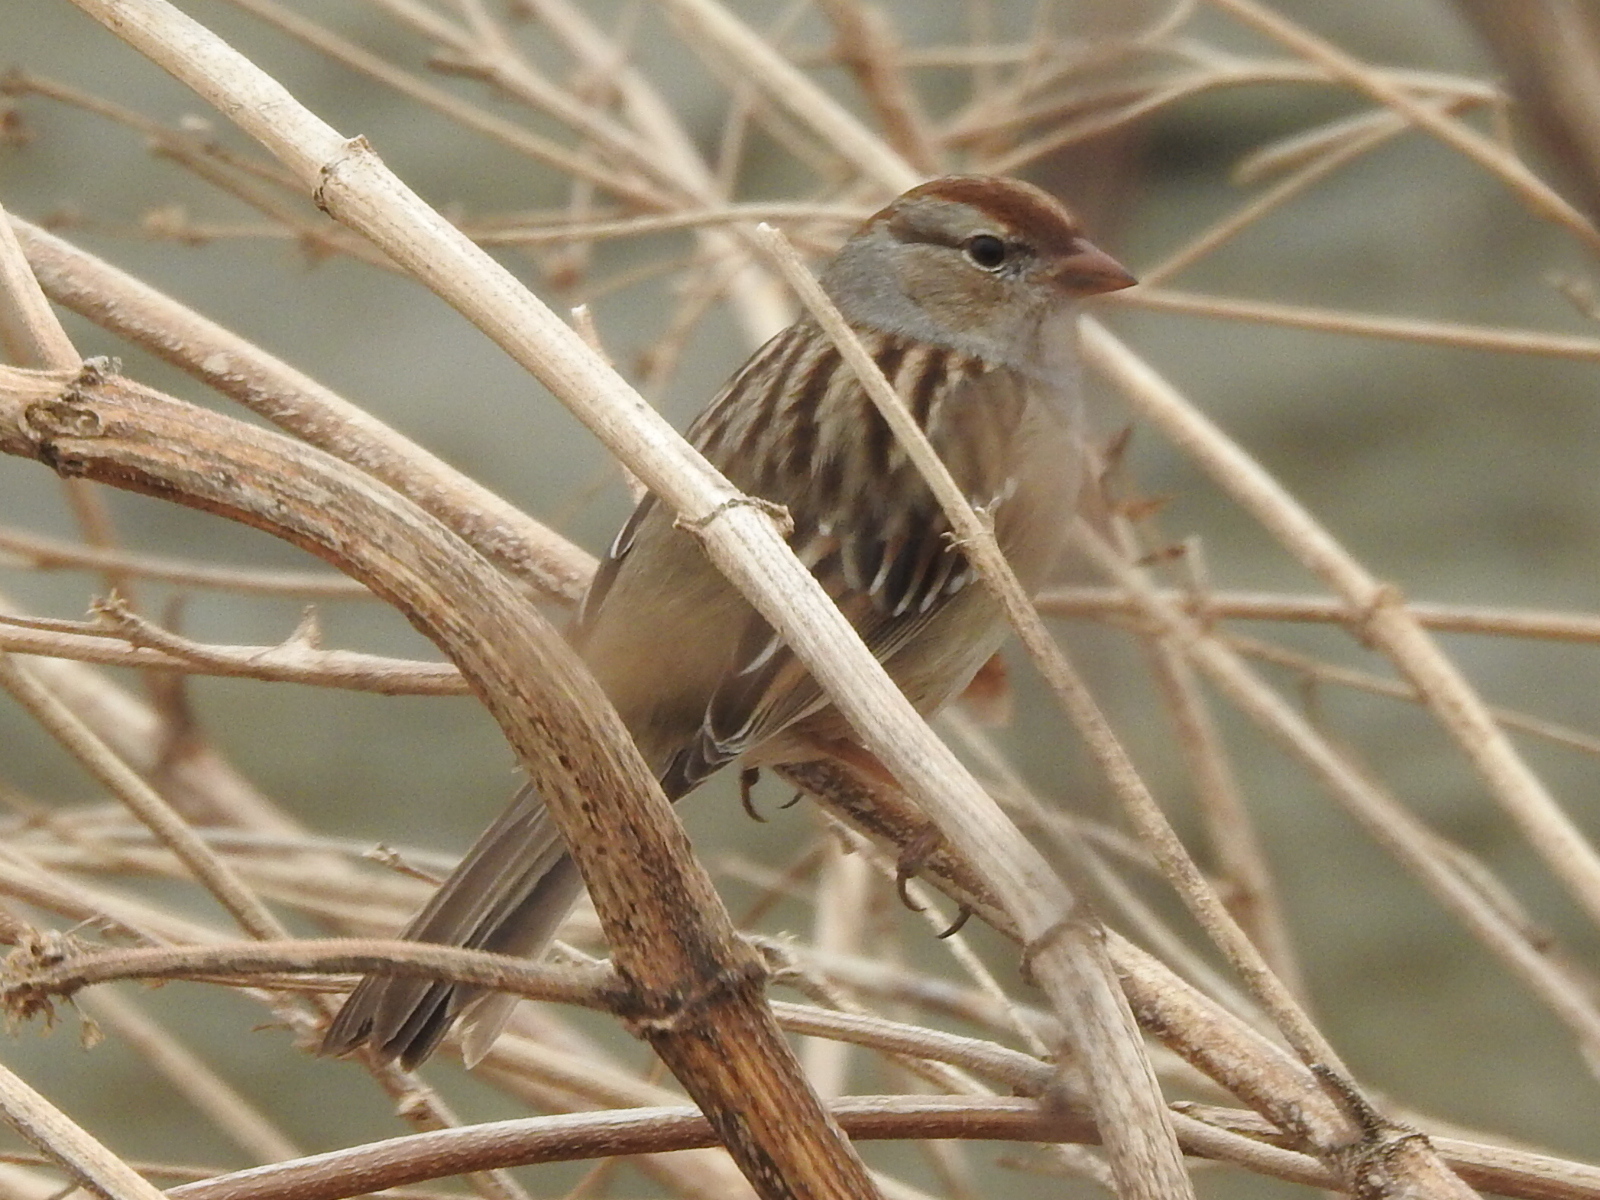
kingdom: Animalia
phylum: Chordata
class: Aves
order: Passeriformes
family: Passerellidae
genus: Zonotrichia
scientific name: Zonotrichia leucophrys
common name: White-crowned sparrow
